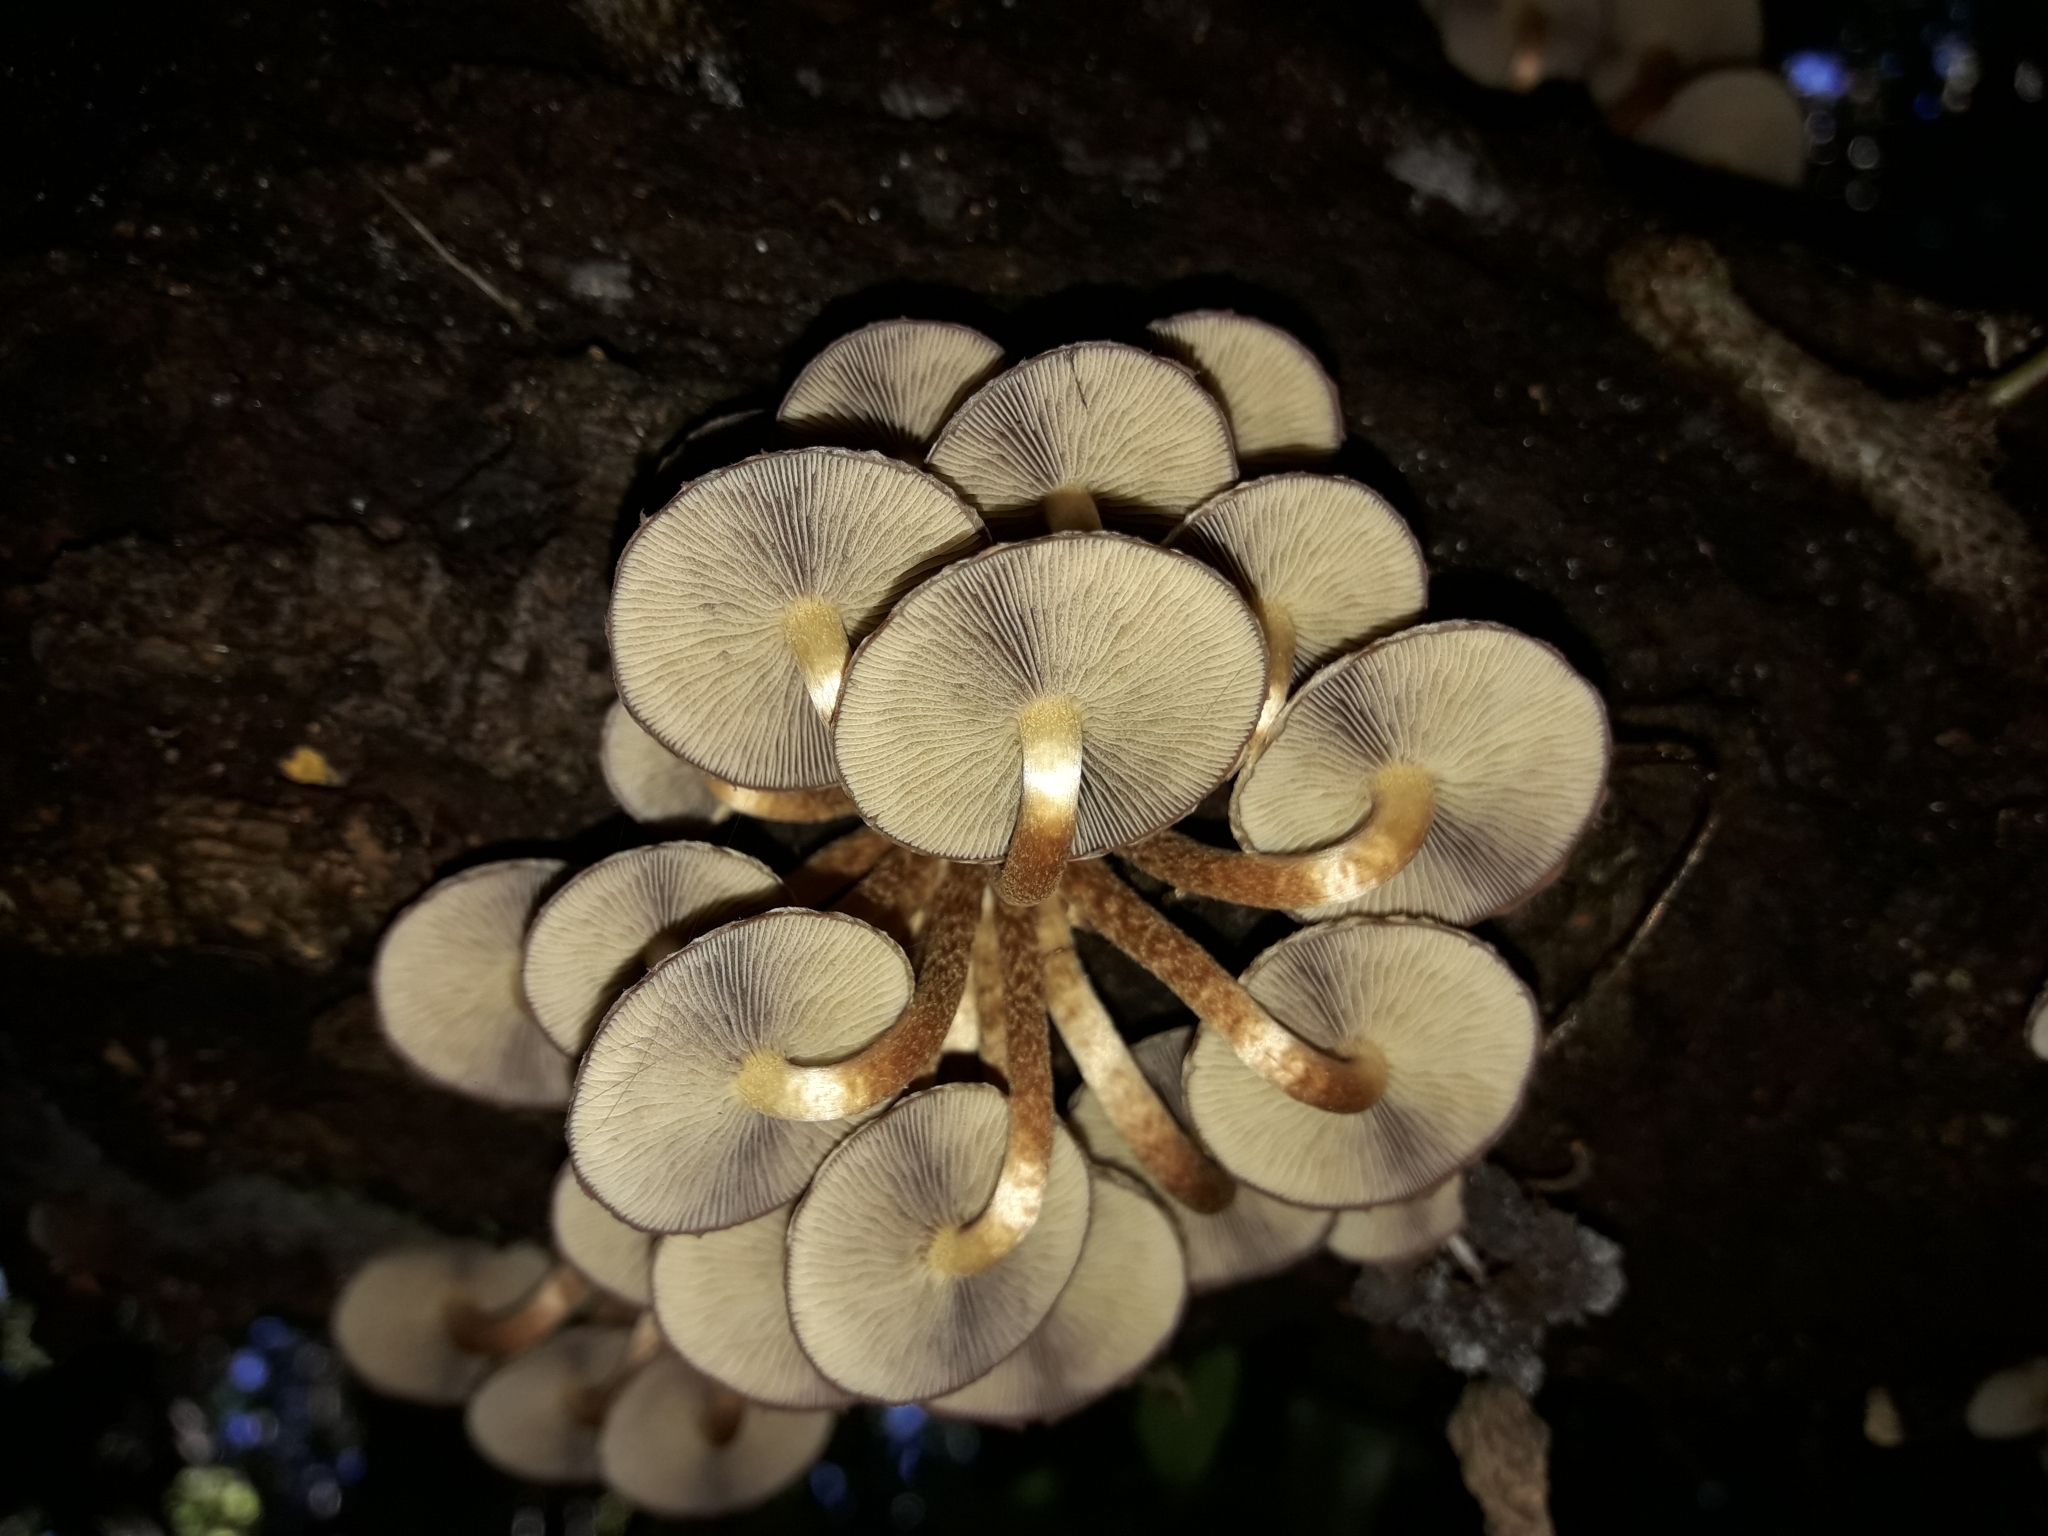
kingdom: Fungi
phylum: Basidiomycota
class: Agaricomycetes
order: Agaricales
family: Strophariaceae
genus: Hypholoma
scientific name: Hypholoma brunneum
